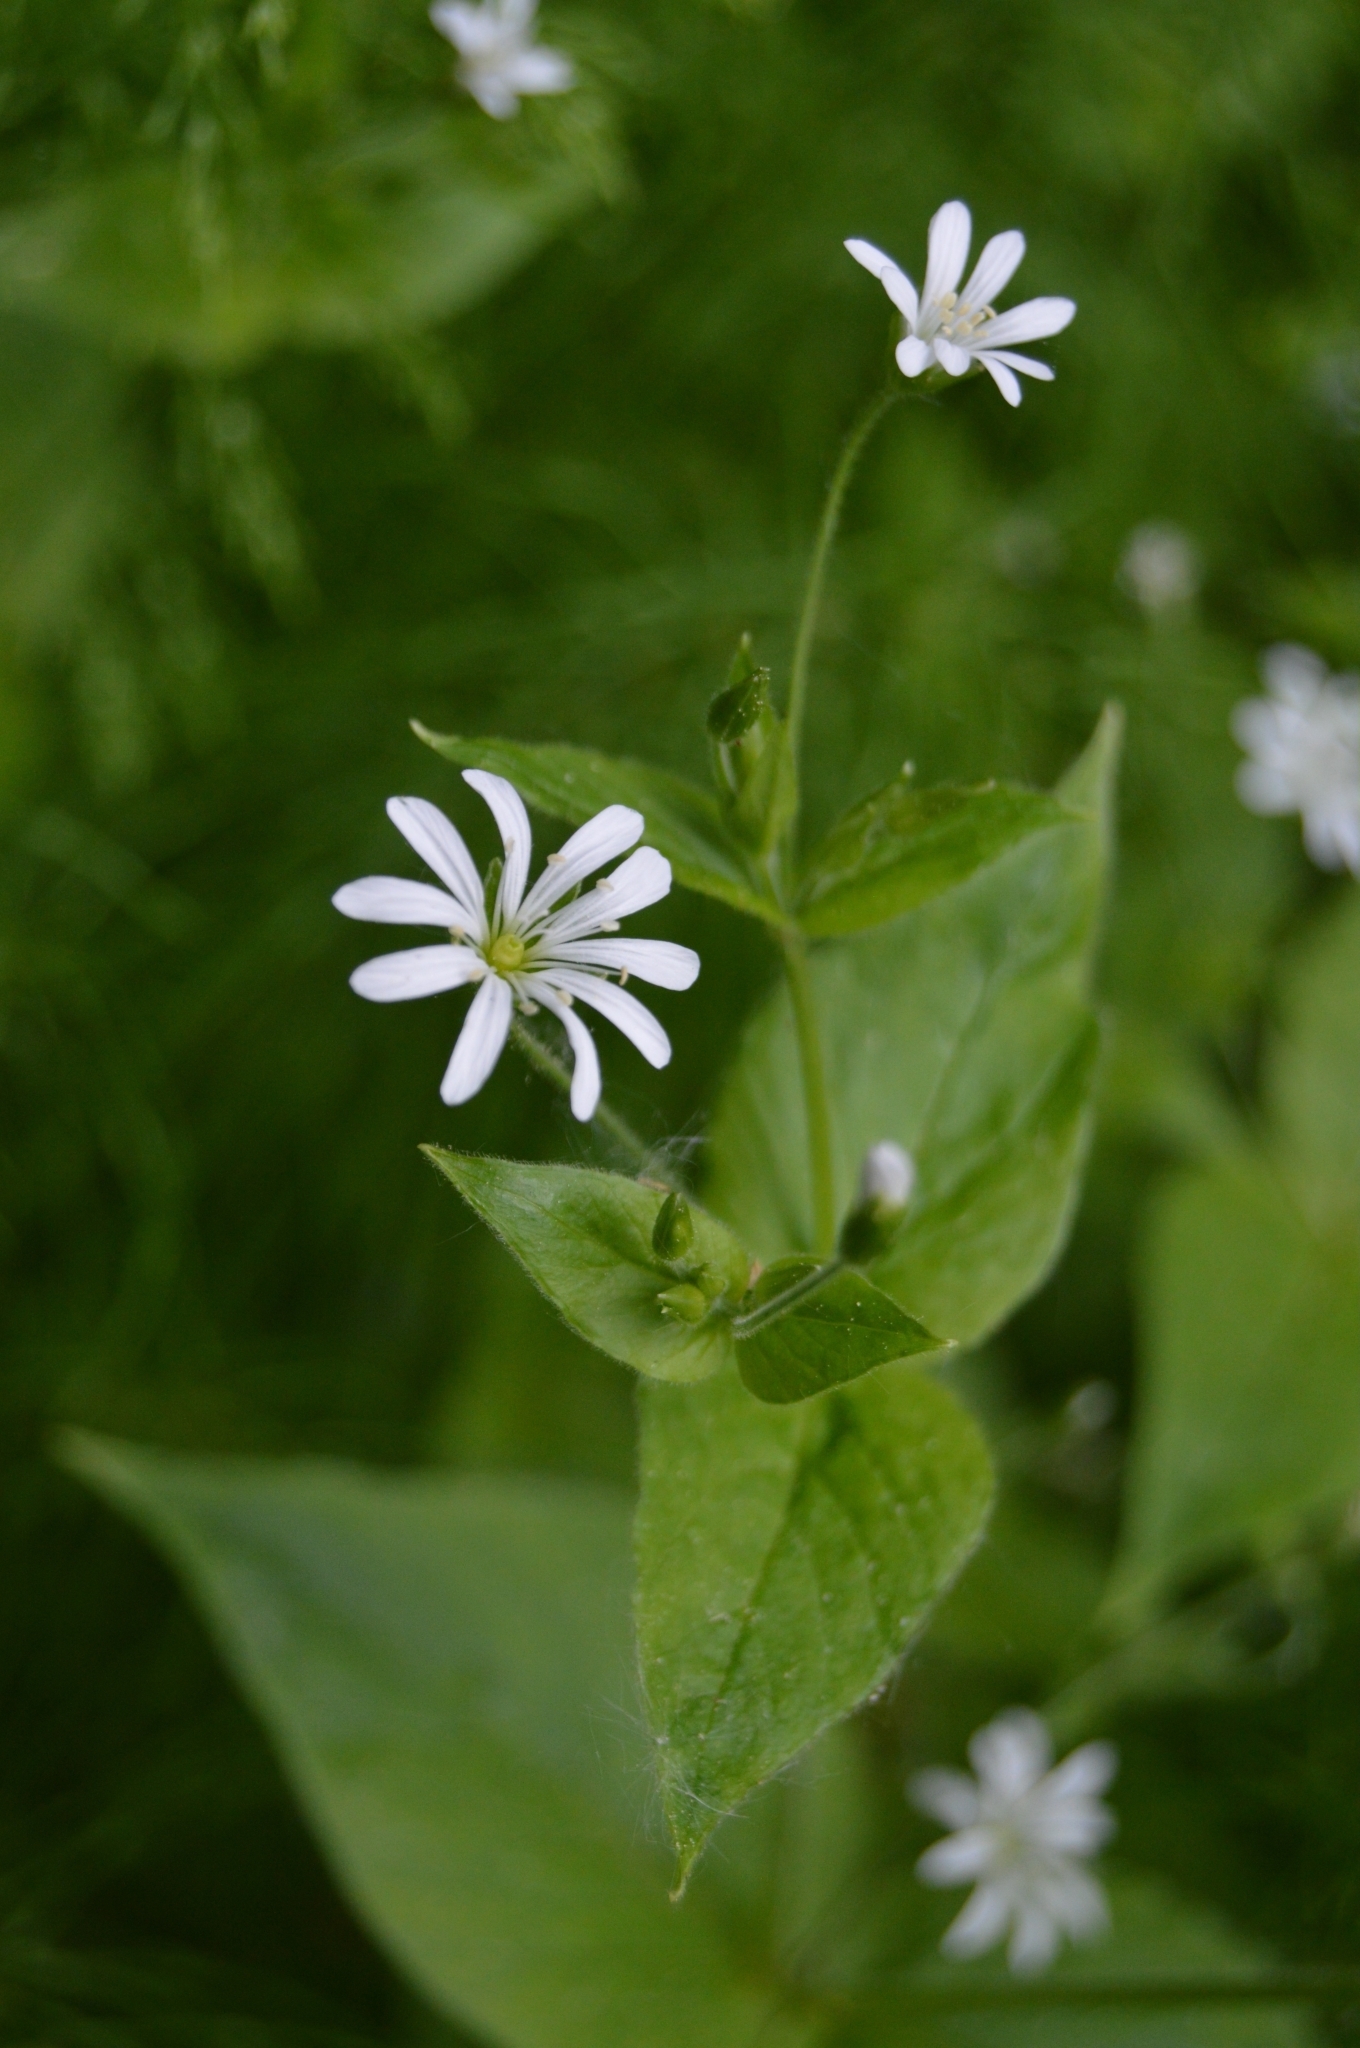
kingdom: Plantae
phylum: Tracheophyta
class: Magnoliopsida
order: Caryophyllales
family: Caryophyllaceae
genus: Stellaria
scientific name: Stellaria nemorum
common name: Wood stitchwort
